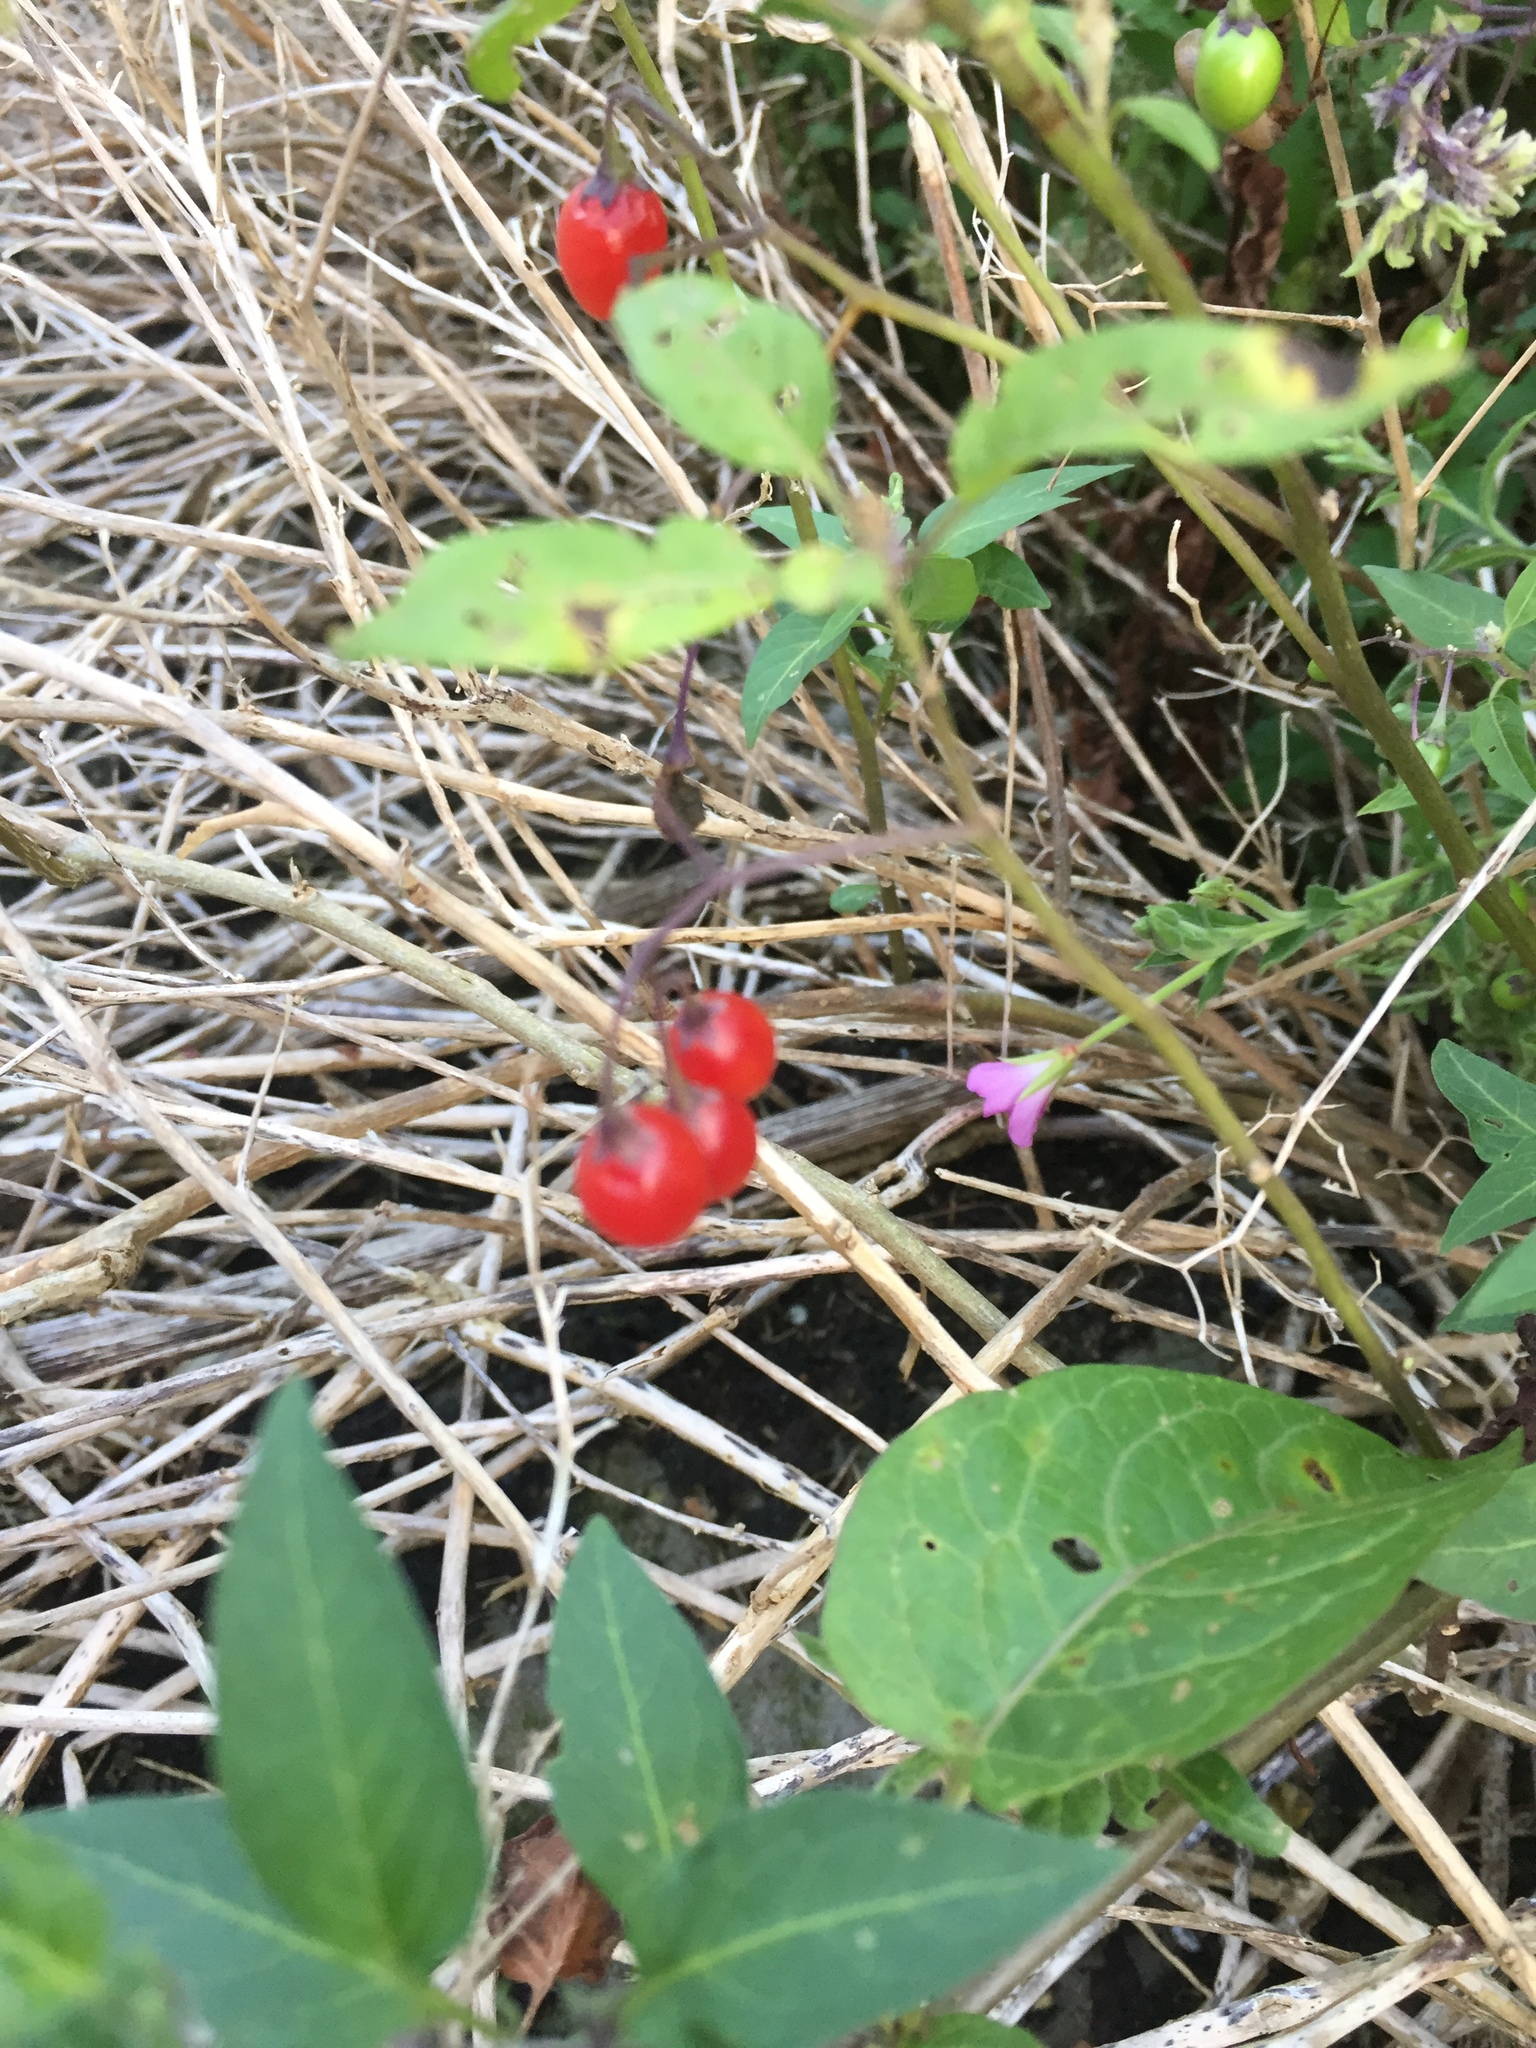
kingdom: Plantae
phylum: Tracheophyta
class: Magnoliopsida
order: Solanales
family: Solanaceae
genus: Solanum
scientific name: Solanum dulcamara
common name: Climbing nightshade
